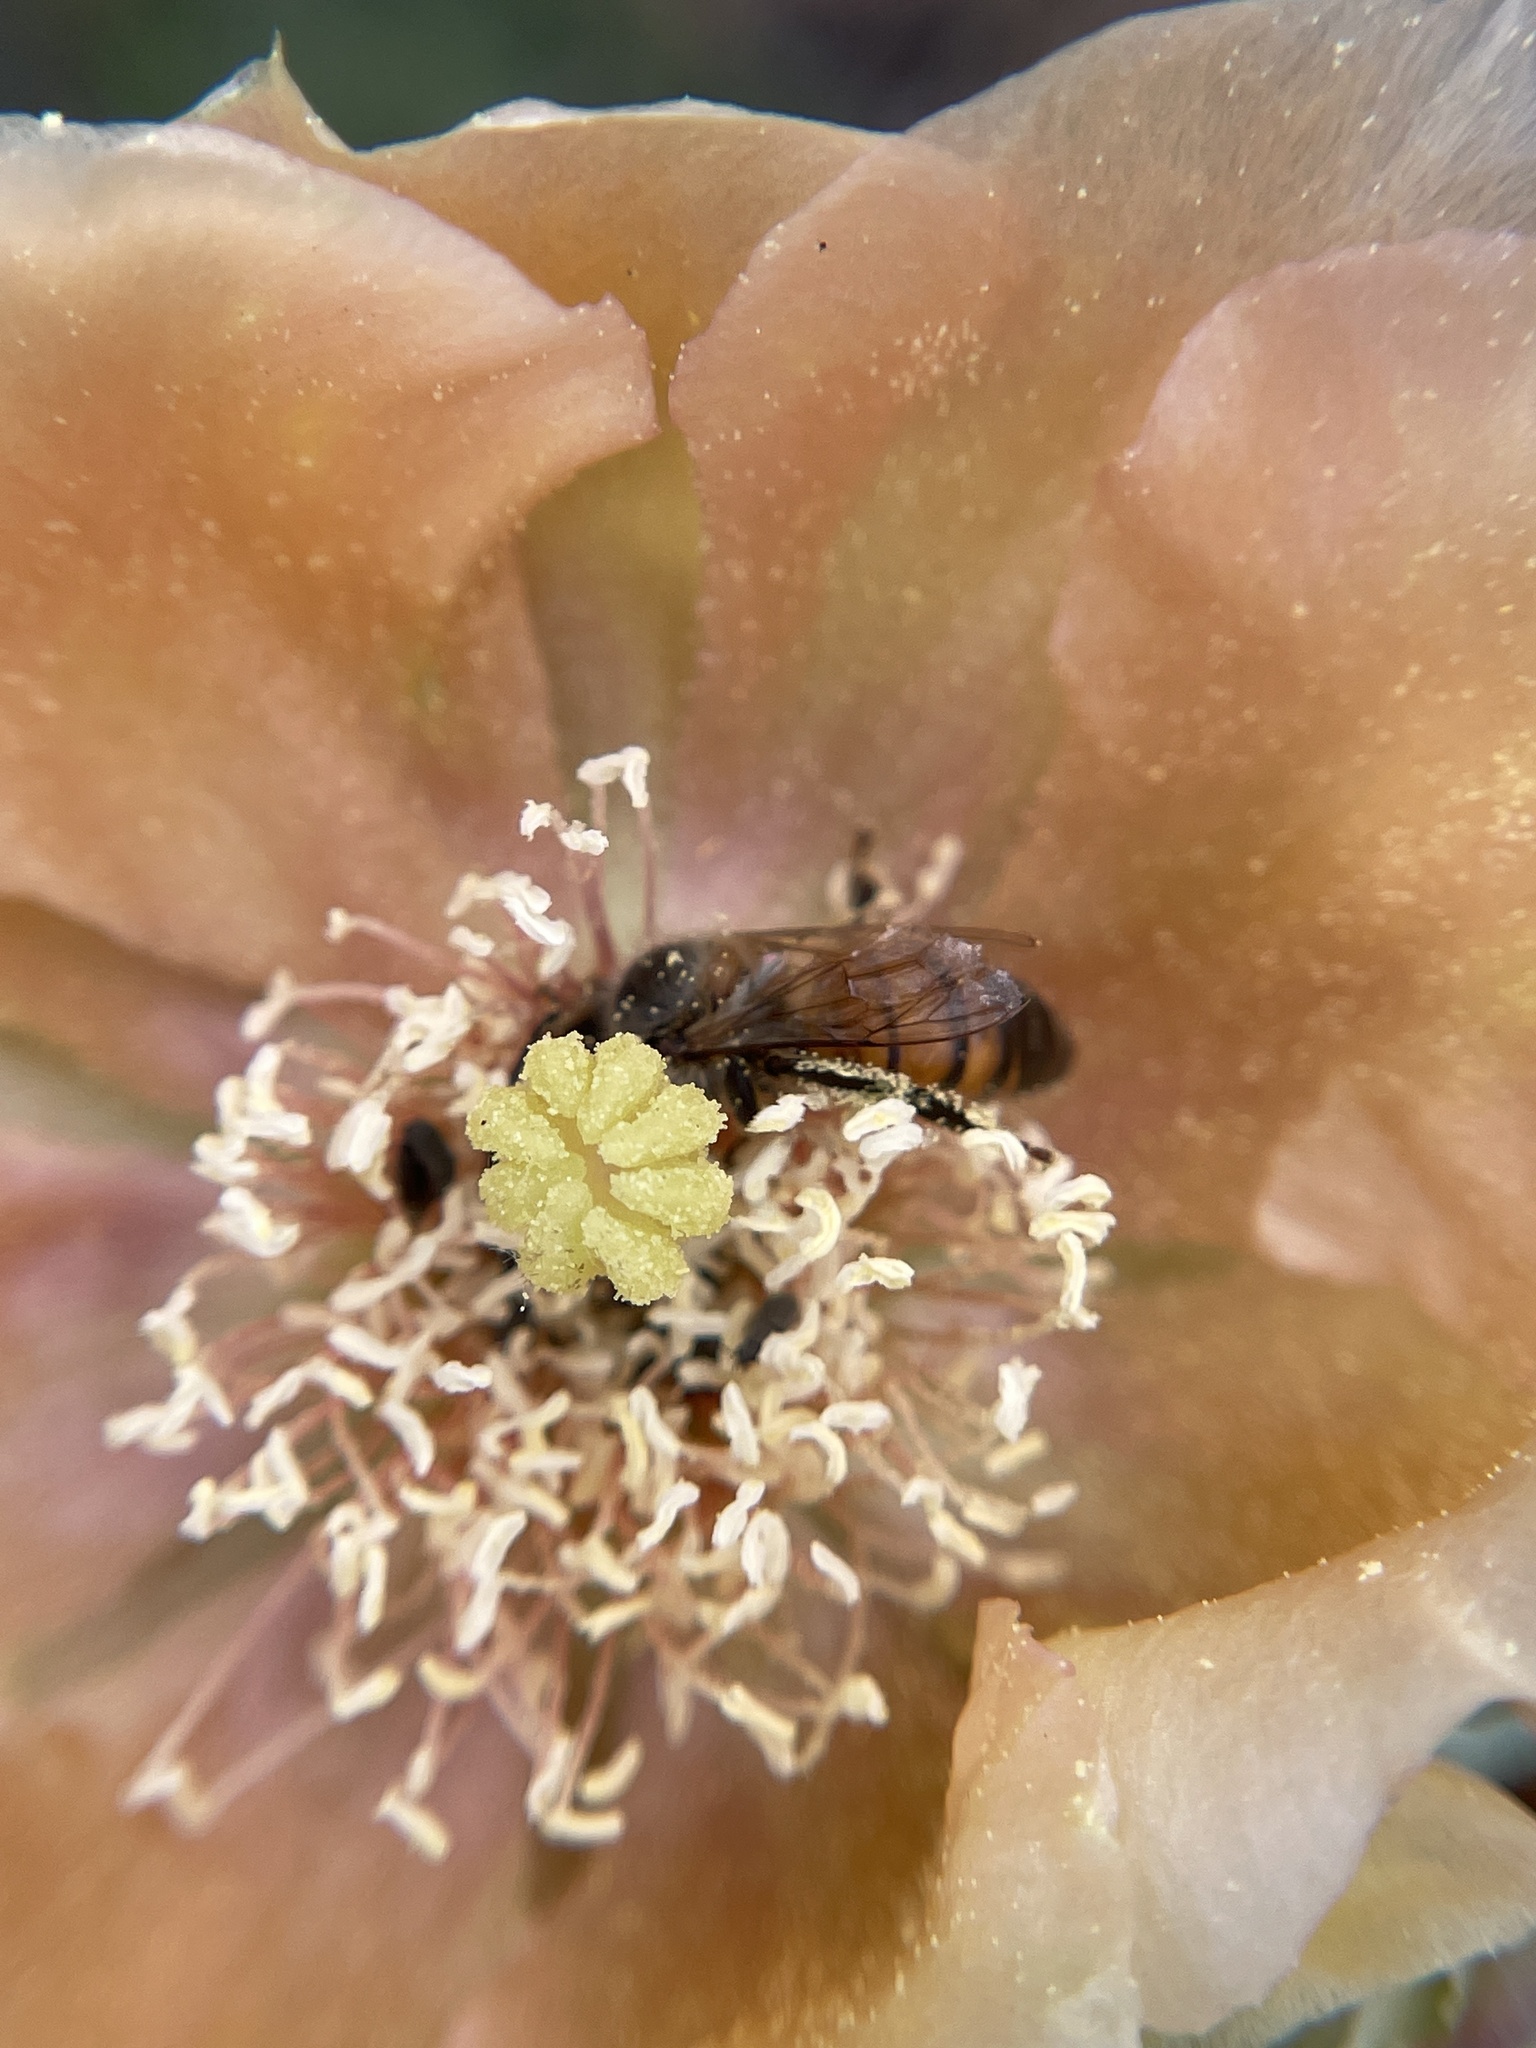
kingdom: Animalia
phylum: Arthropoda
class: Insecta
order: Hymenoptera
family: Apidae
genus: Apis
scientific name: Apis mellifera
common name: Honey bee
